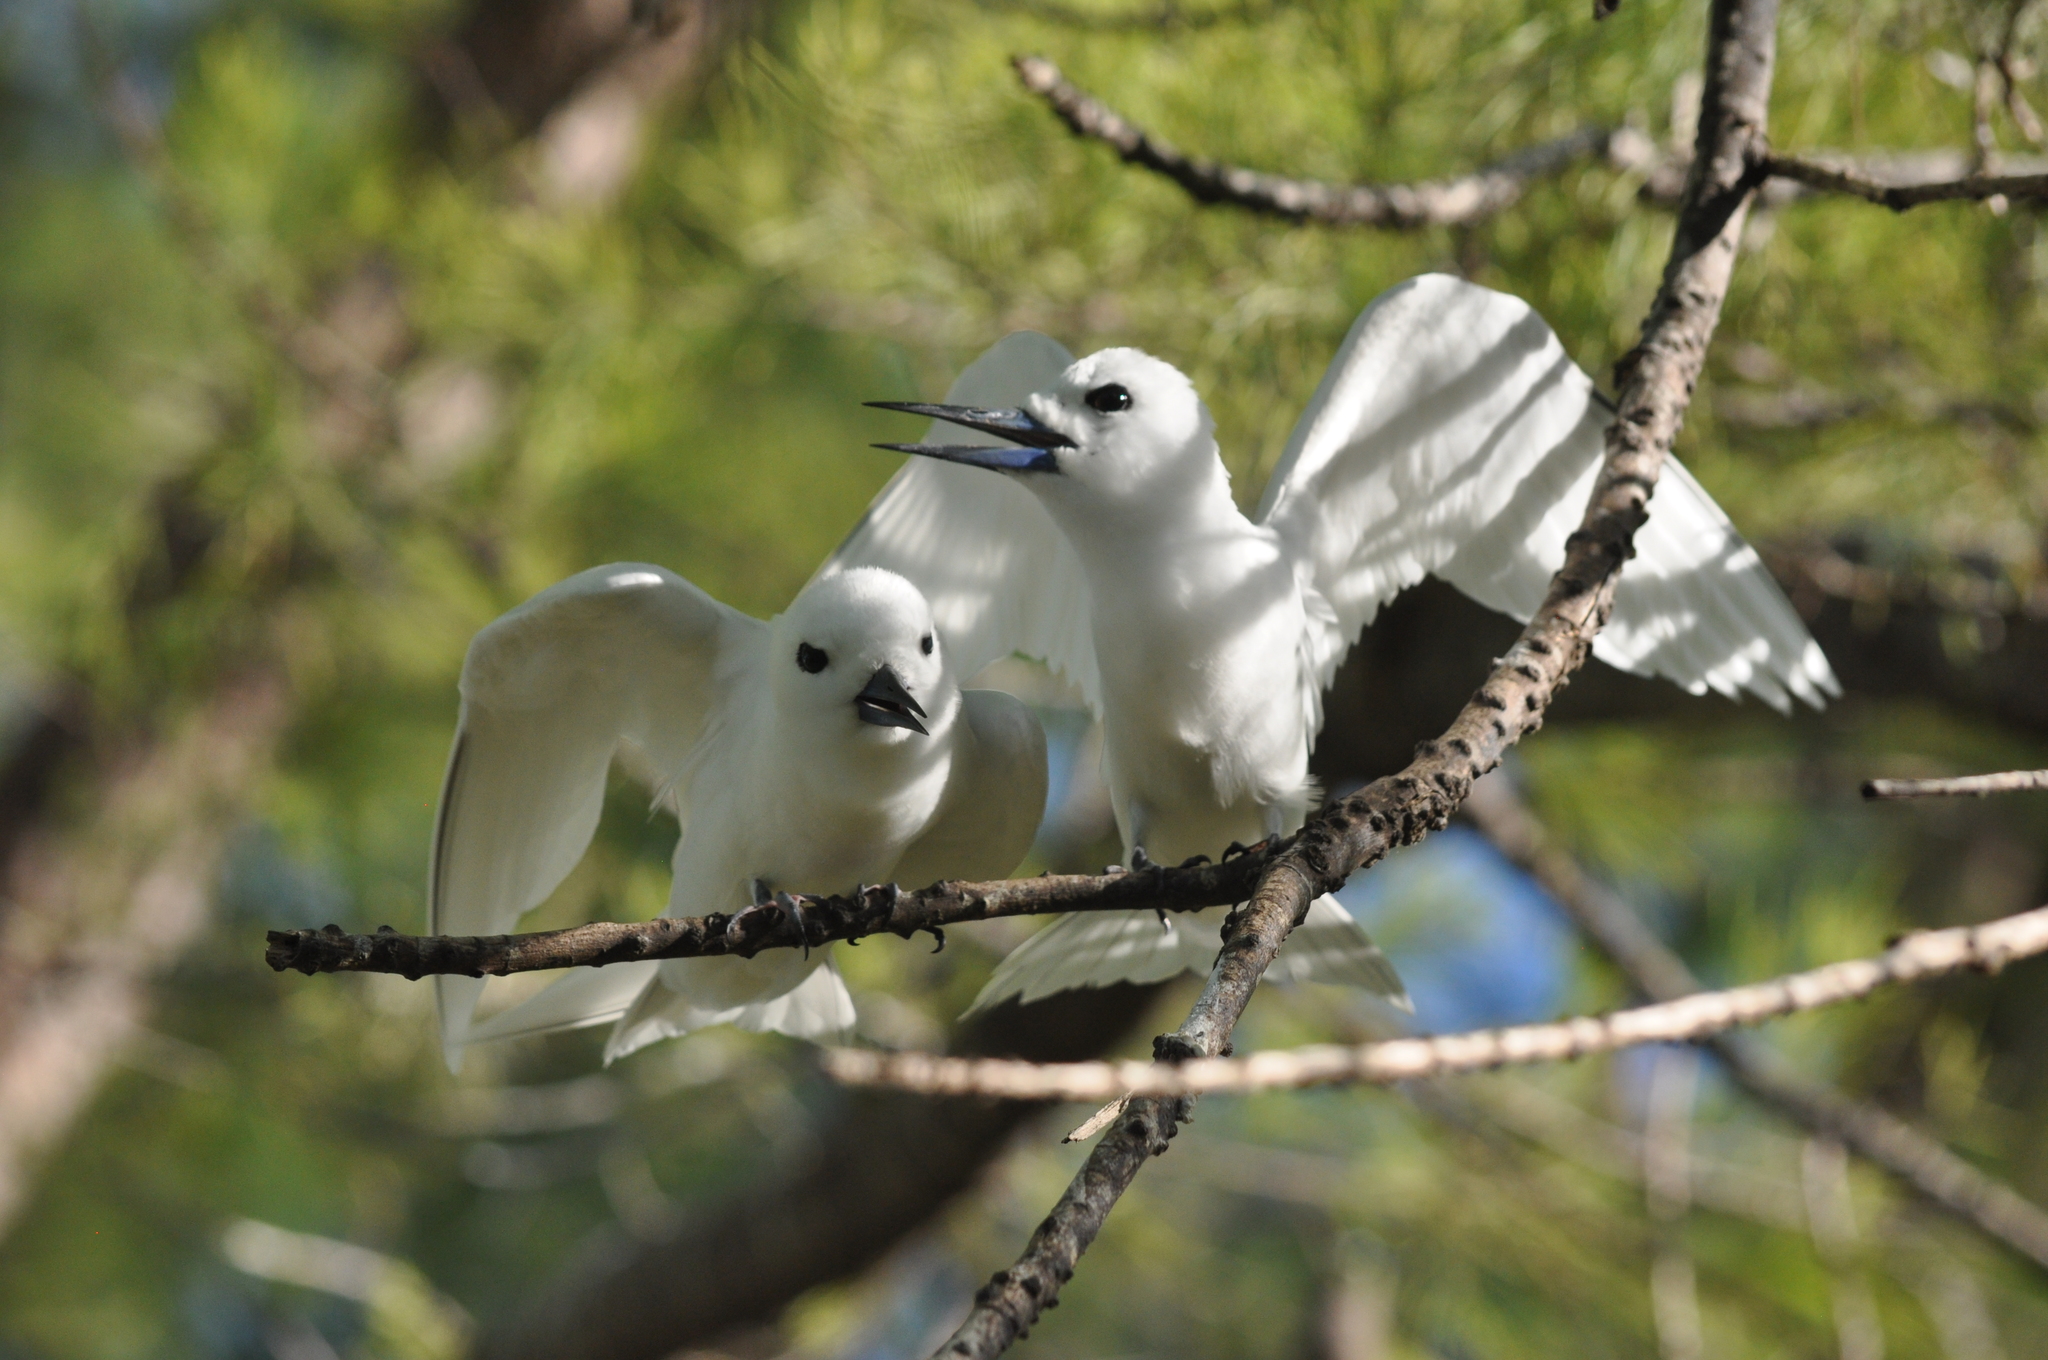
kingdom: Animalia
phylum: Chordata
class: Aves
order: Charadriiformes
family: Laridae
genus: Gygis
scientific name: Gygis alba
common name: White tern
